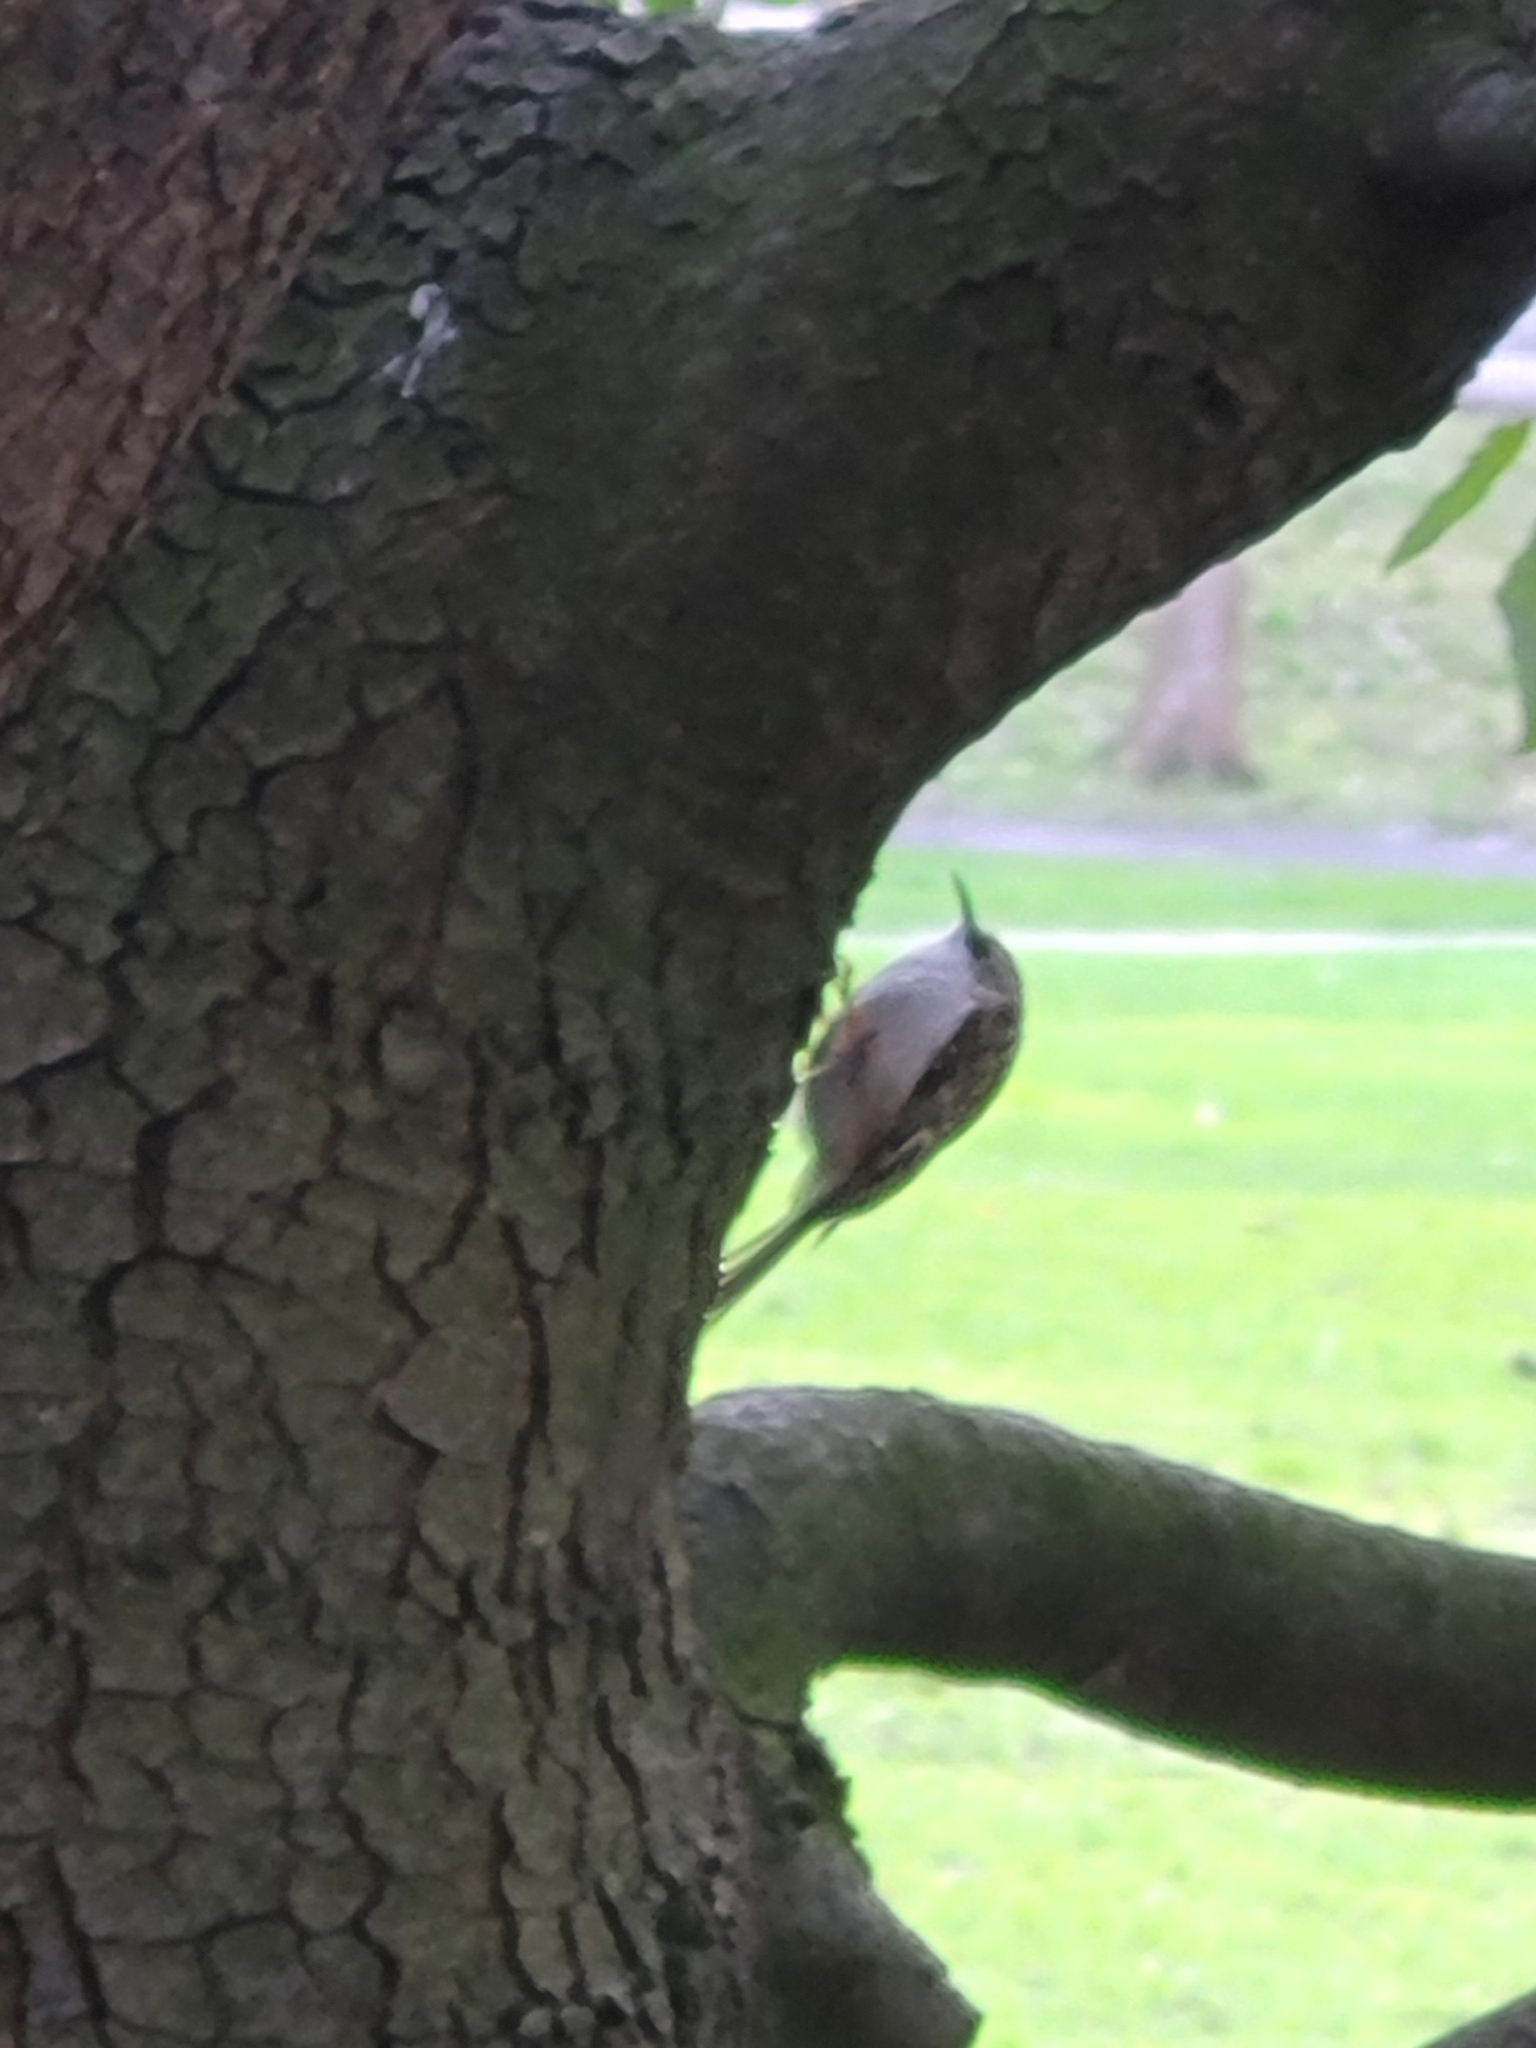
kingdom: Animalia
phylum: Chordata
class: Aves
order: Passeriformes
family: Certhiidae
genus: Certhia
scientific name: Certhia familiaris
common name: Eurasian treecreeper
